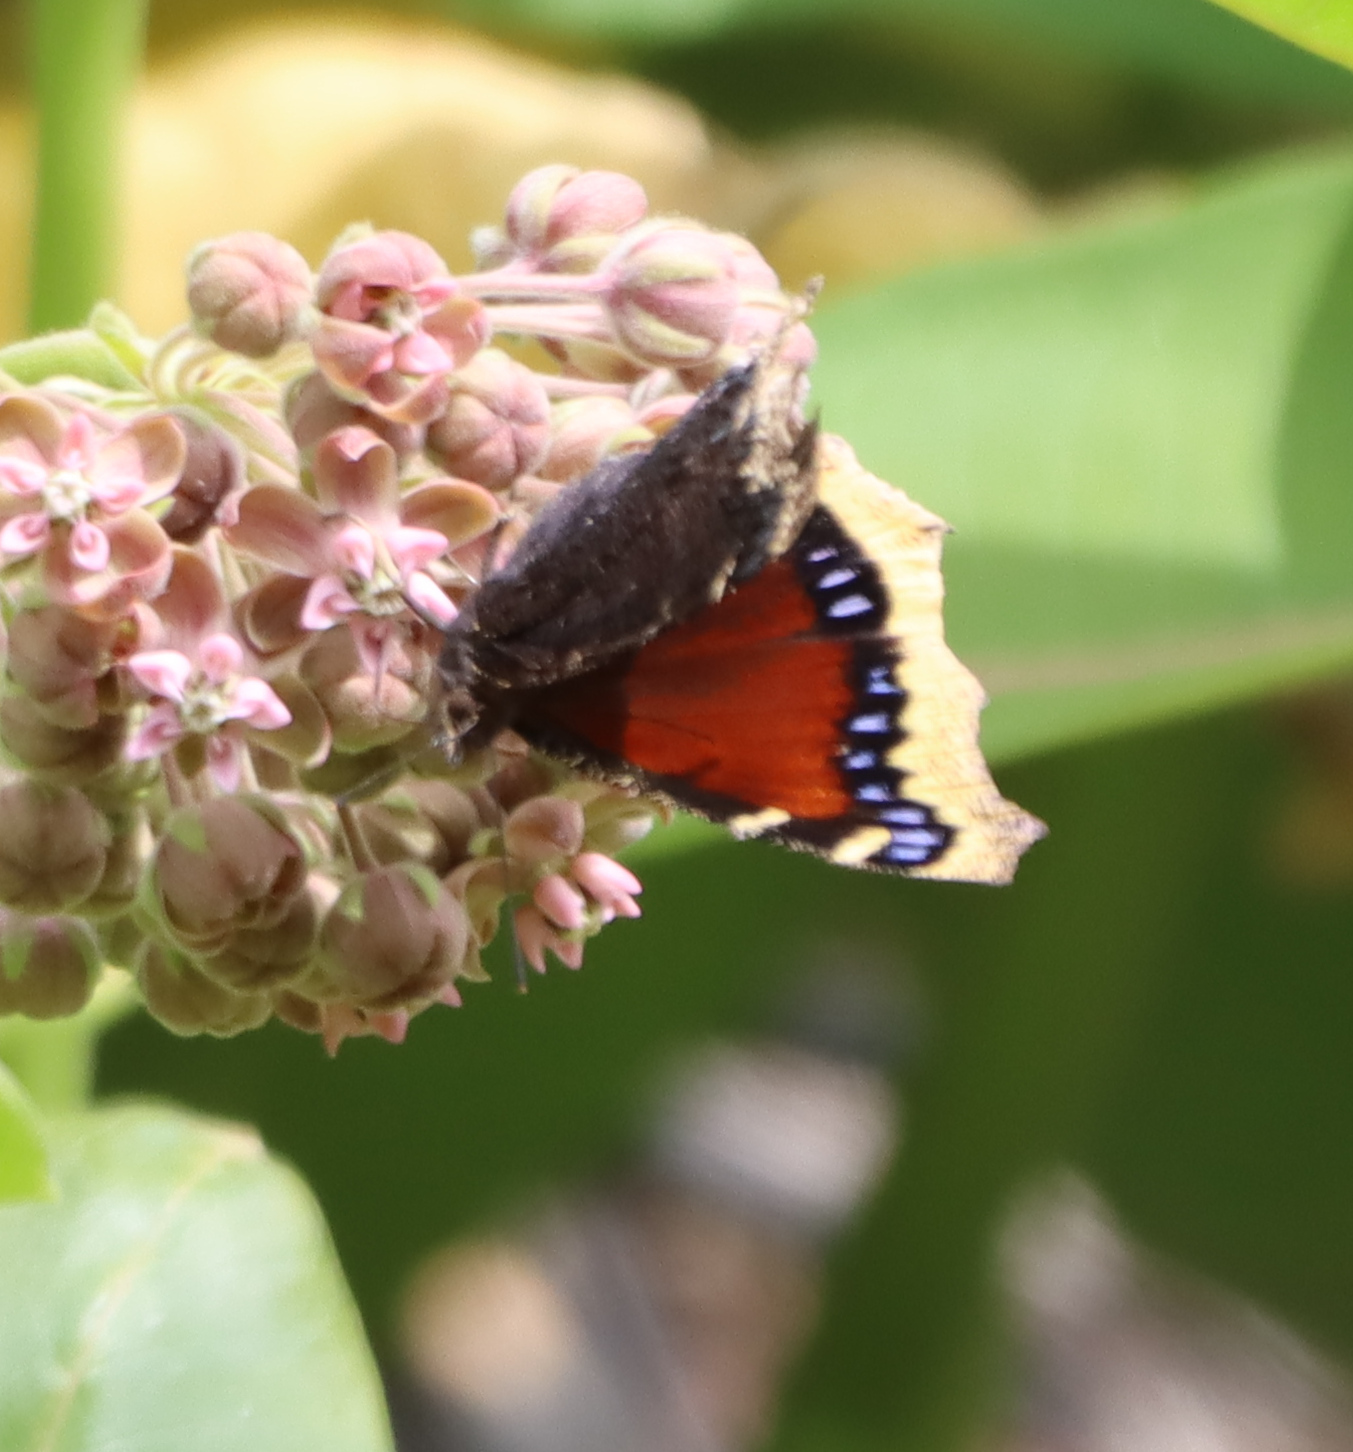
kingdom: Animalia
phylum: Arthropoda
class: Insecta
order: Lepidoptera
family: Nymphalidae
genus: Nymphalis
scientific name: Nymphalis antiopa
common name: Camberwell beauty
